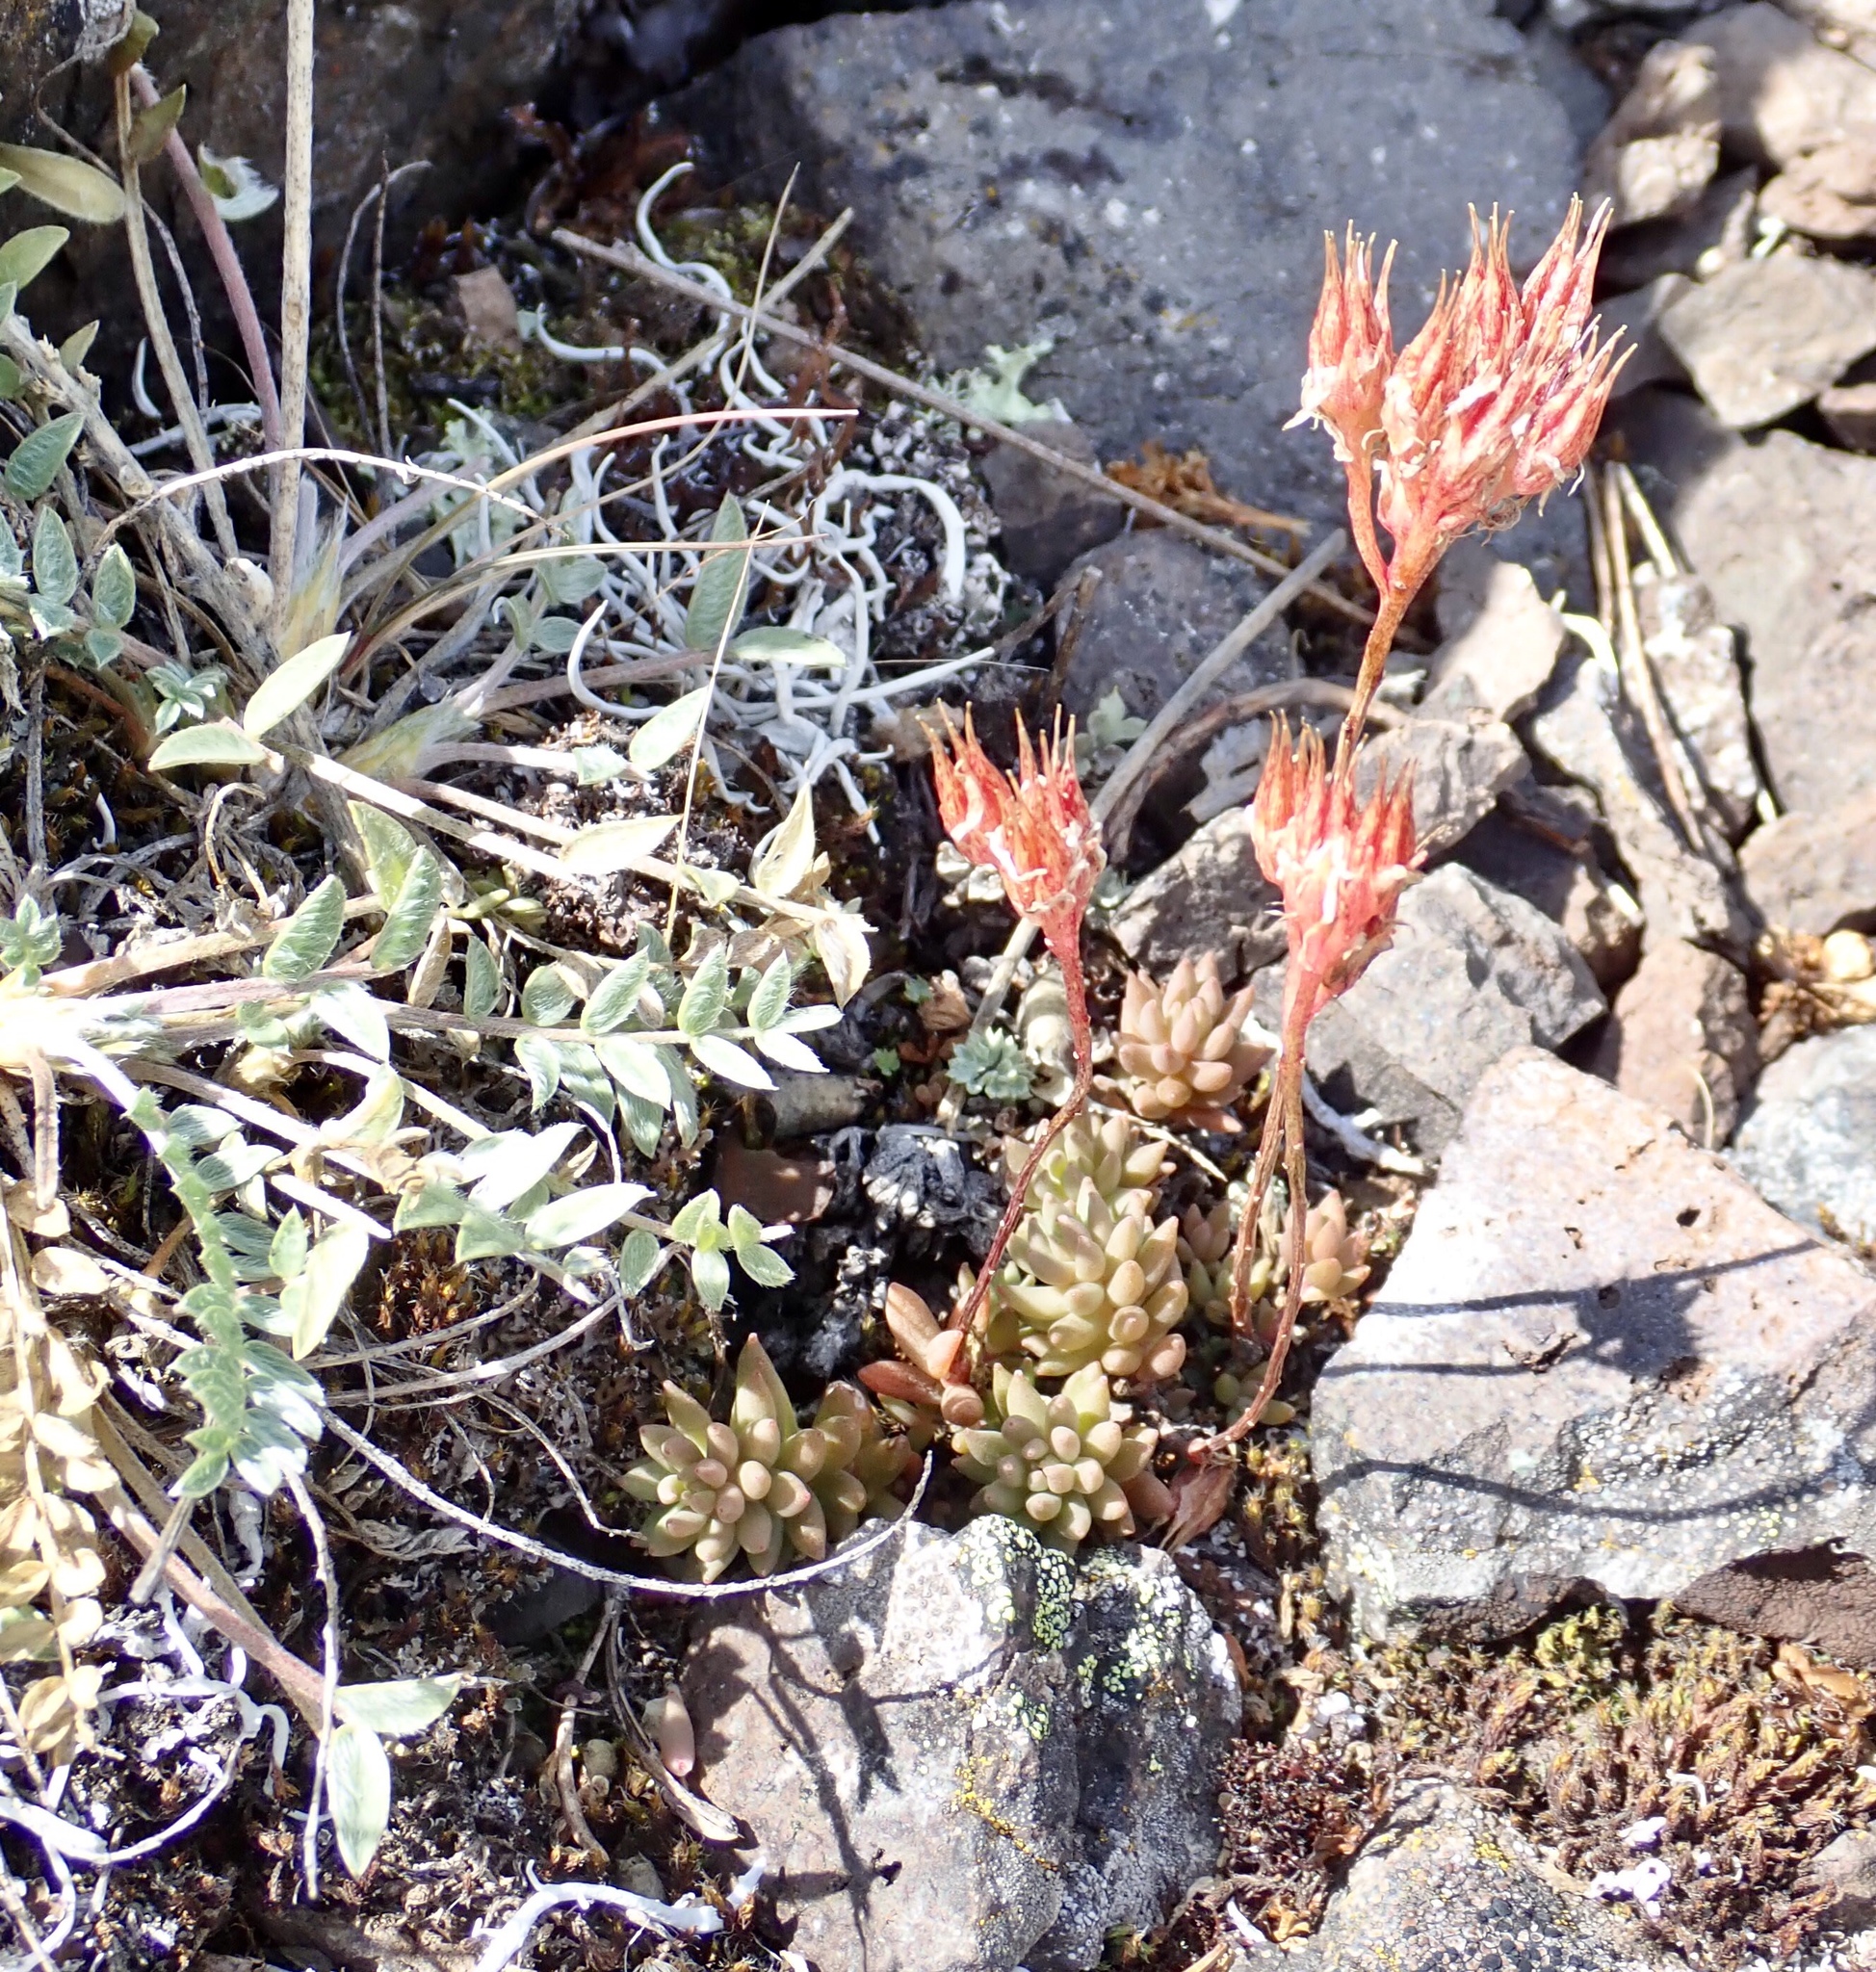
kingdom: Plantae
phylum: Tracheophyta
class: Magnoliopsida
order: Saxifragales
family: Crassulaceae
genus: Sedum
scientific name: Sedum lanceolatum
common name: Common stonecrop
